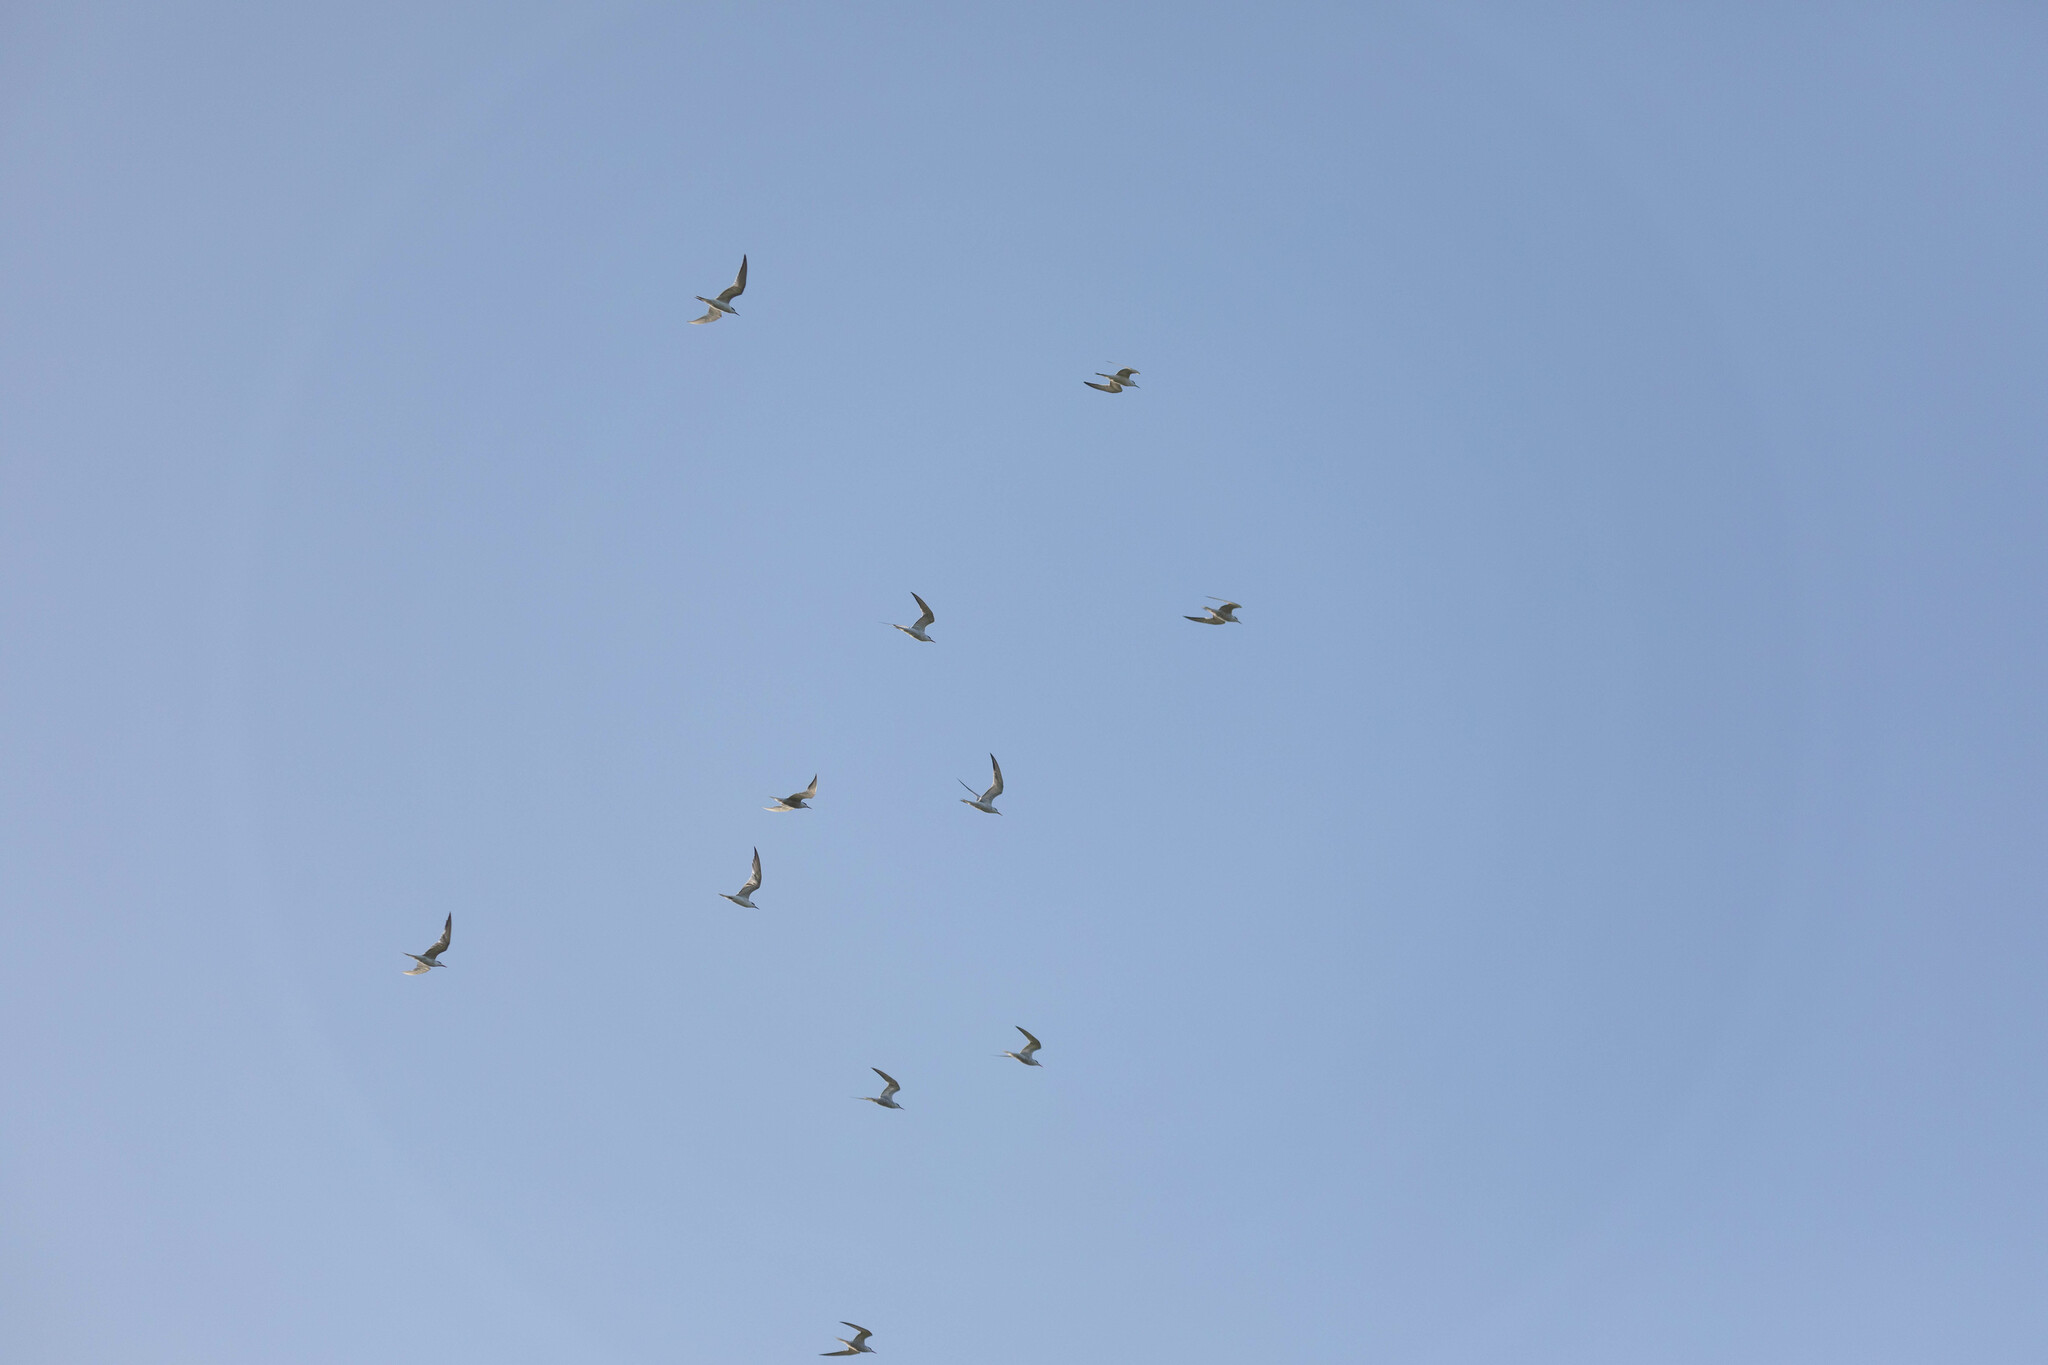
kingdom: Animalia
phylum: Chordata
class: Aves
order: Charadriiformes
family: Laridae
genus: Sterna
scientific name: Sterna hirundo
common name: Common tern
